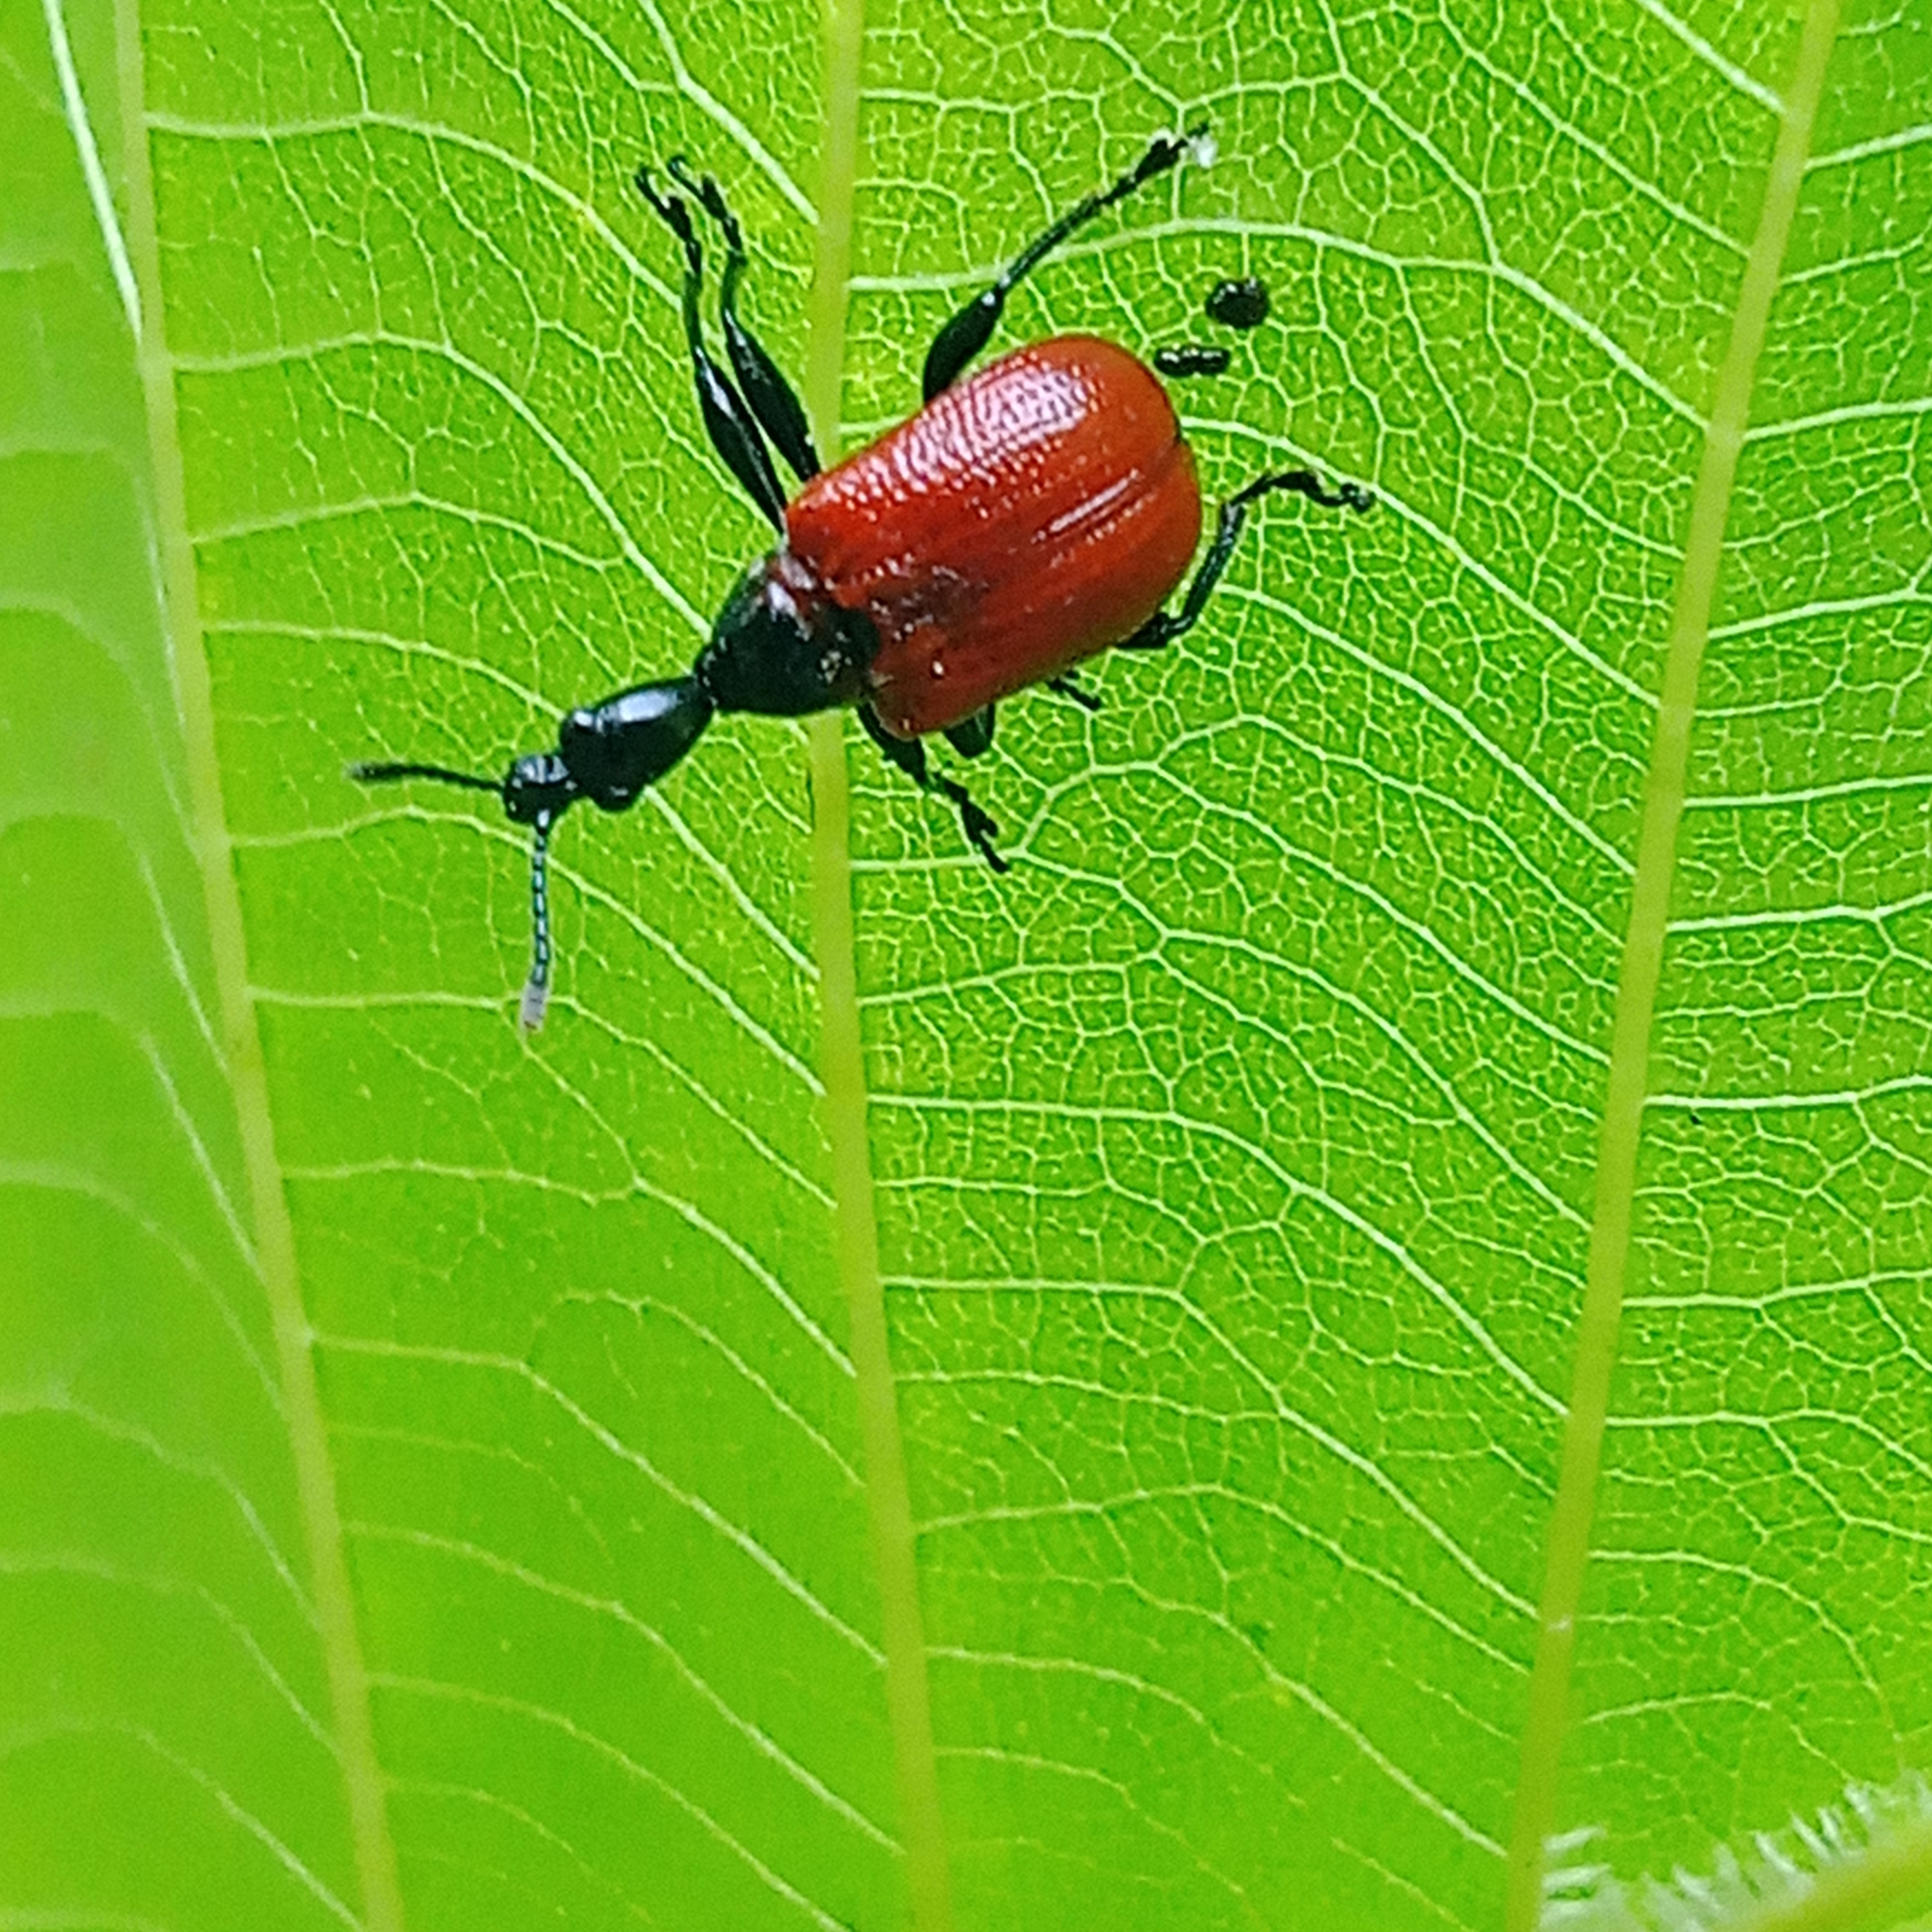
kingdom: Animalia
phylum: Arthropoda
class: Insecta
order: Coleoptera
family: Attelabidae
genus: Apoderus
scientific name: Apoderus coryli
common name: Hazel leaf roller
